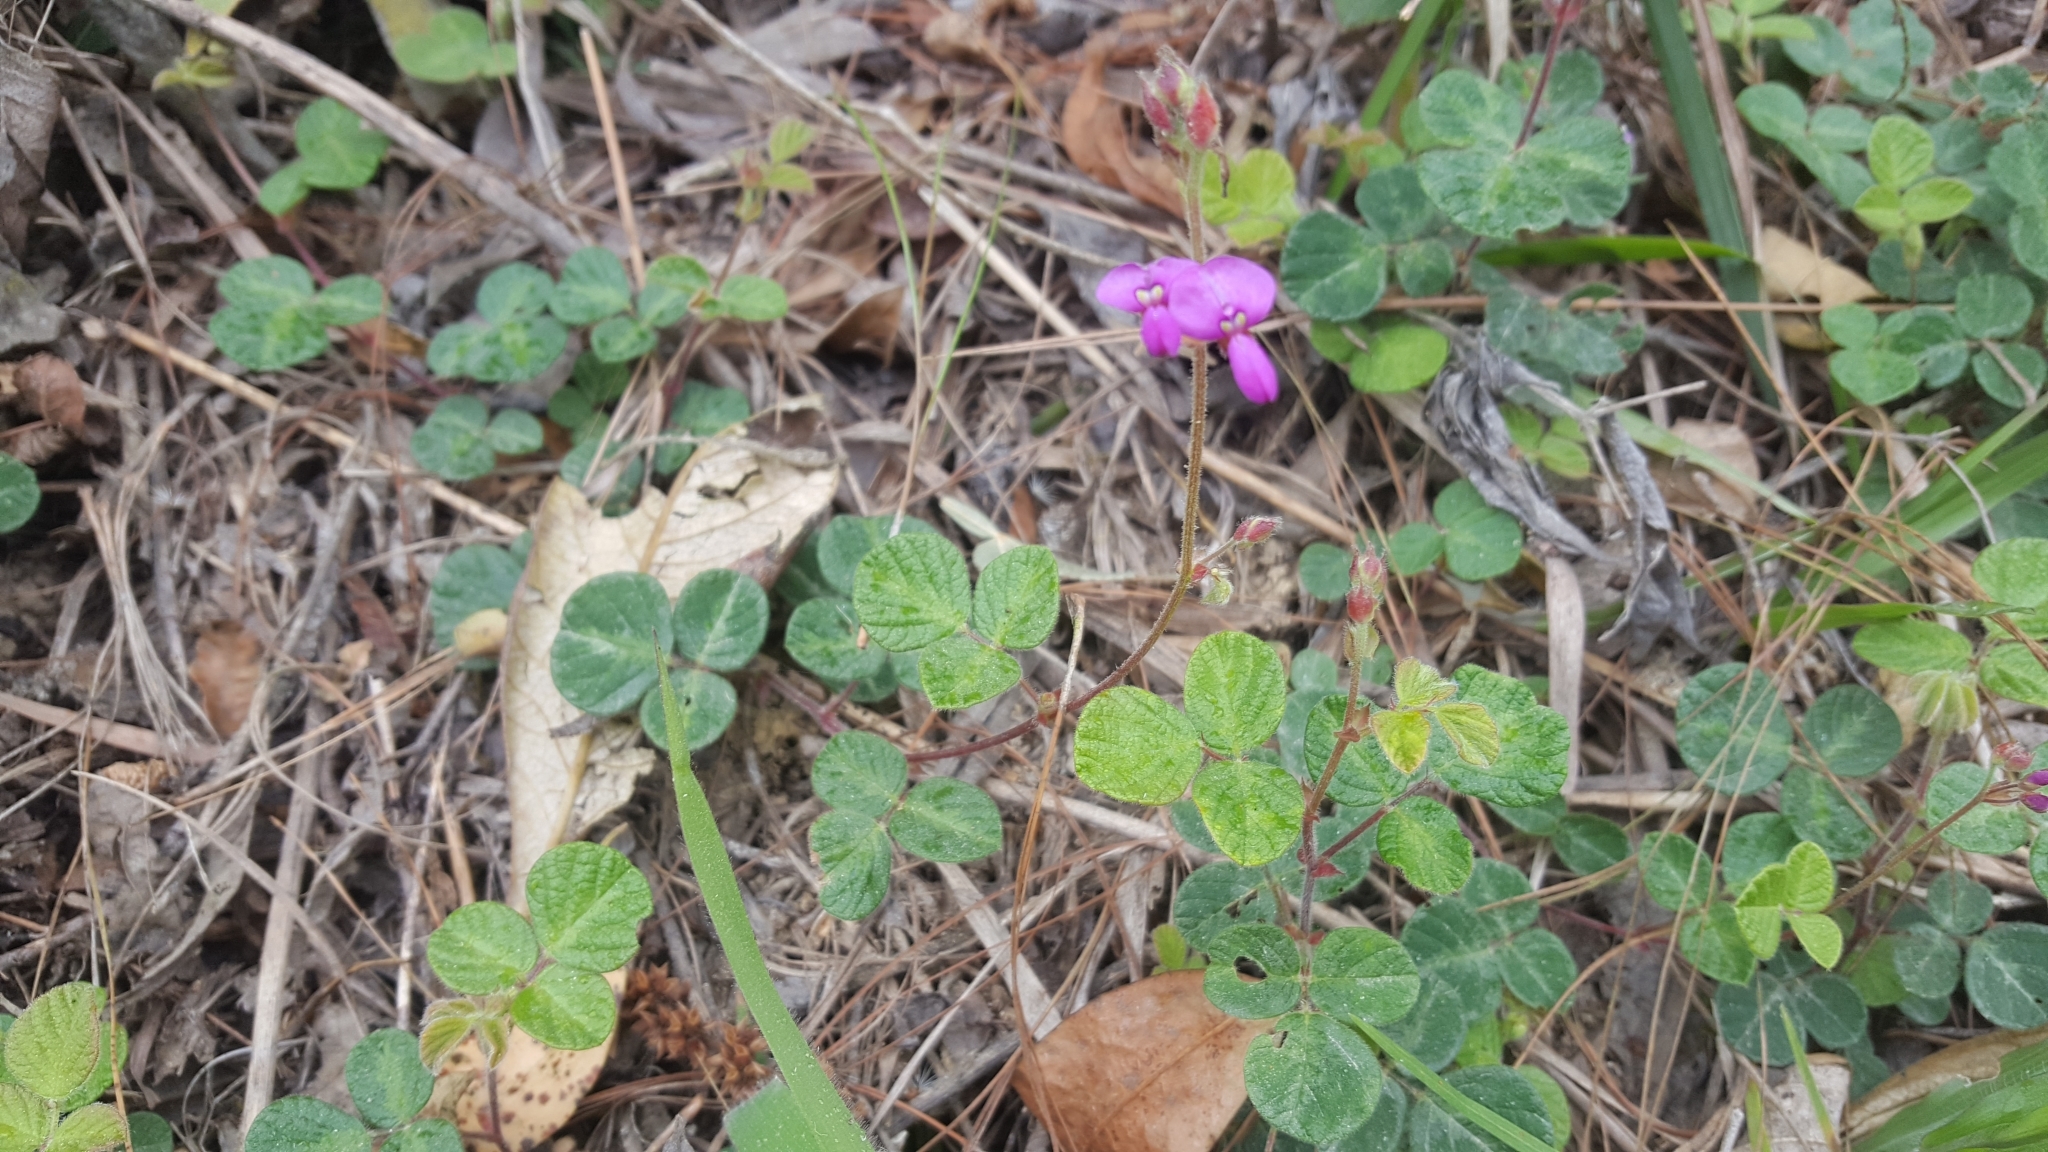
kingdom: Plantae
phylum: Tracheophyta
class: Magnoliopsida
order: Fabales
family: Fabaceae
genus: Desmodium
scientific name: Desmodium molliculum
